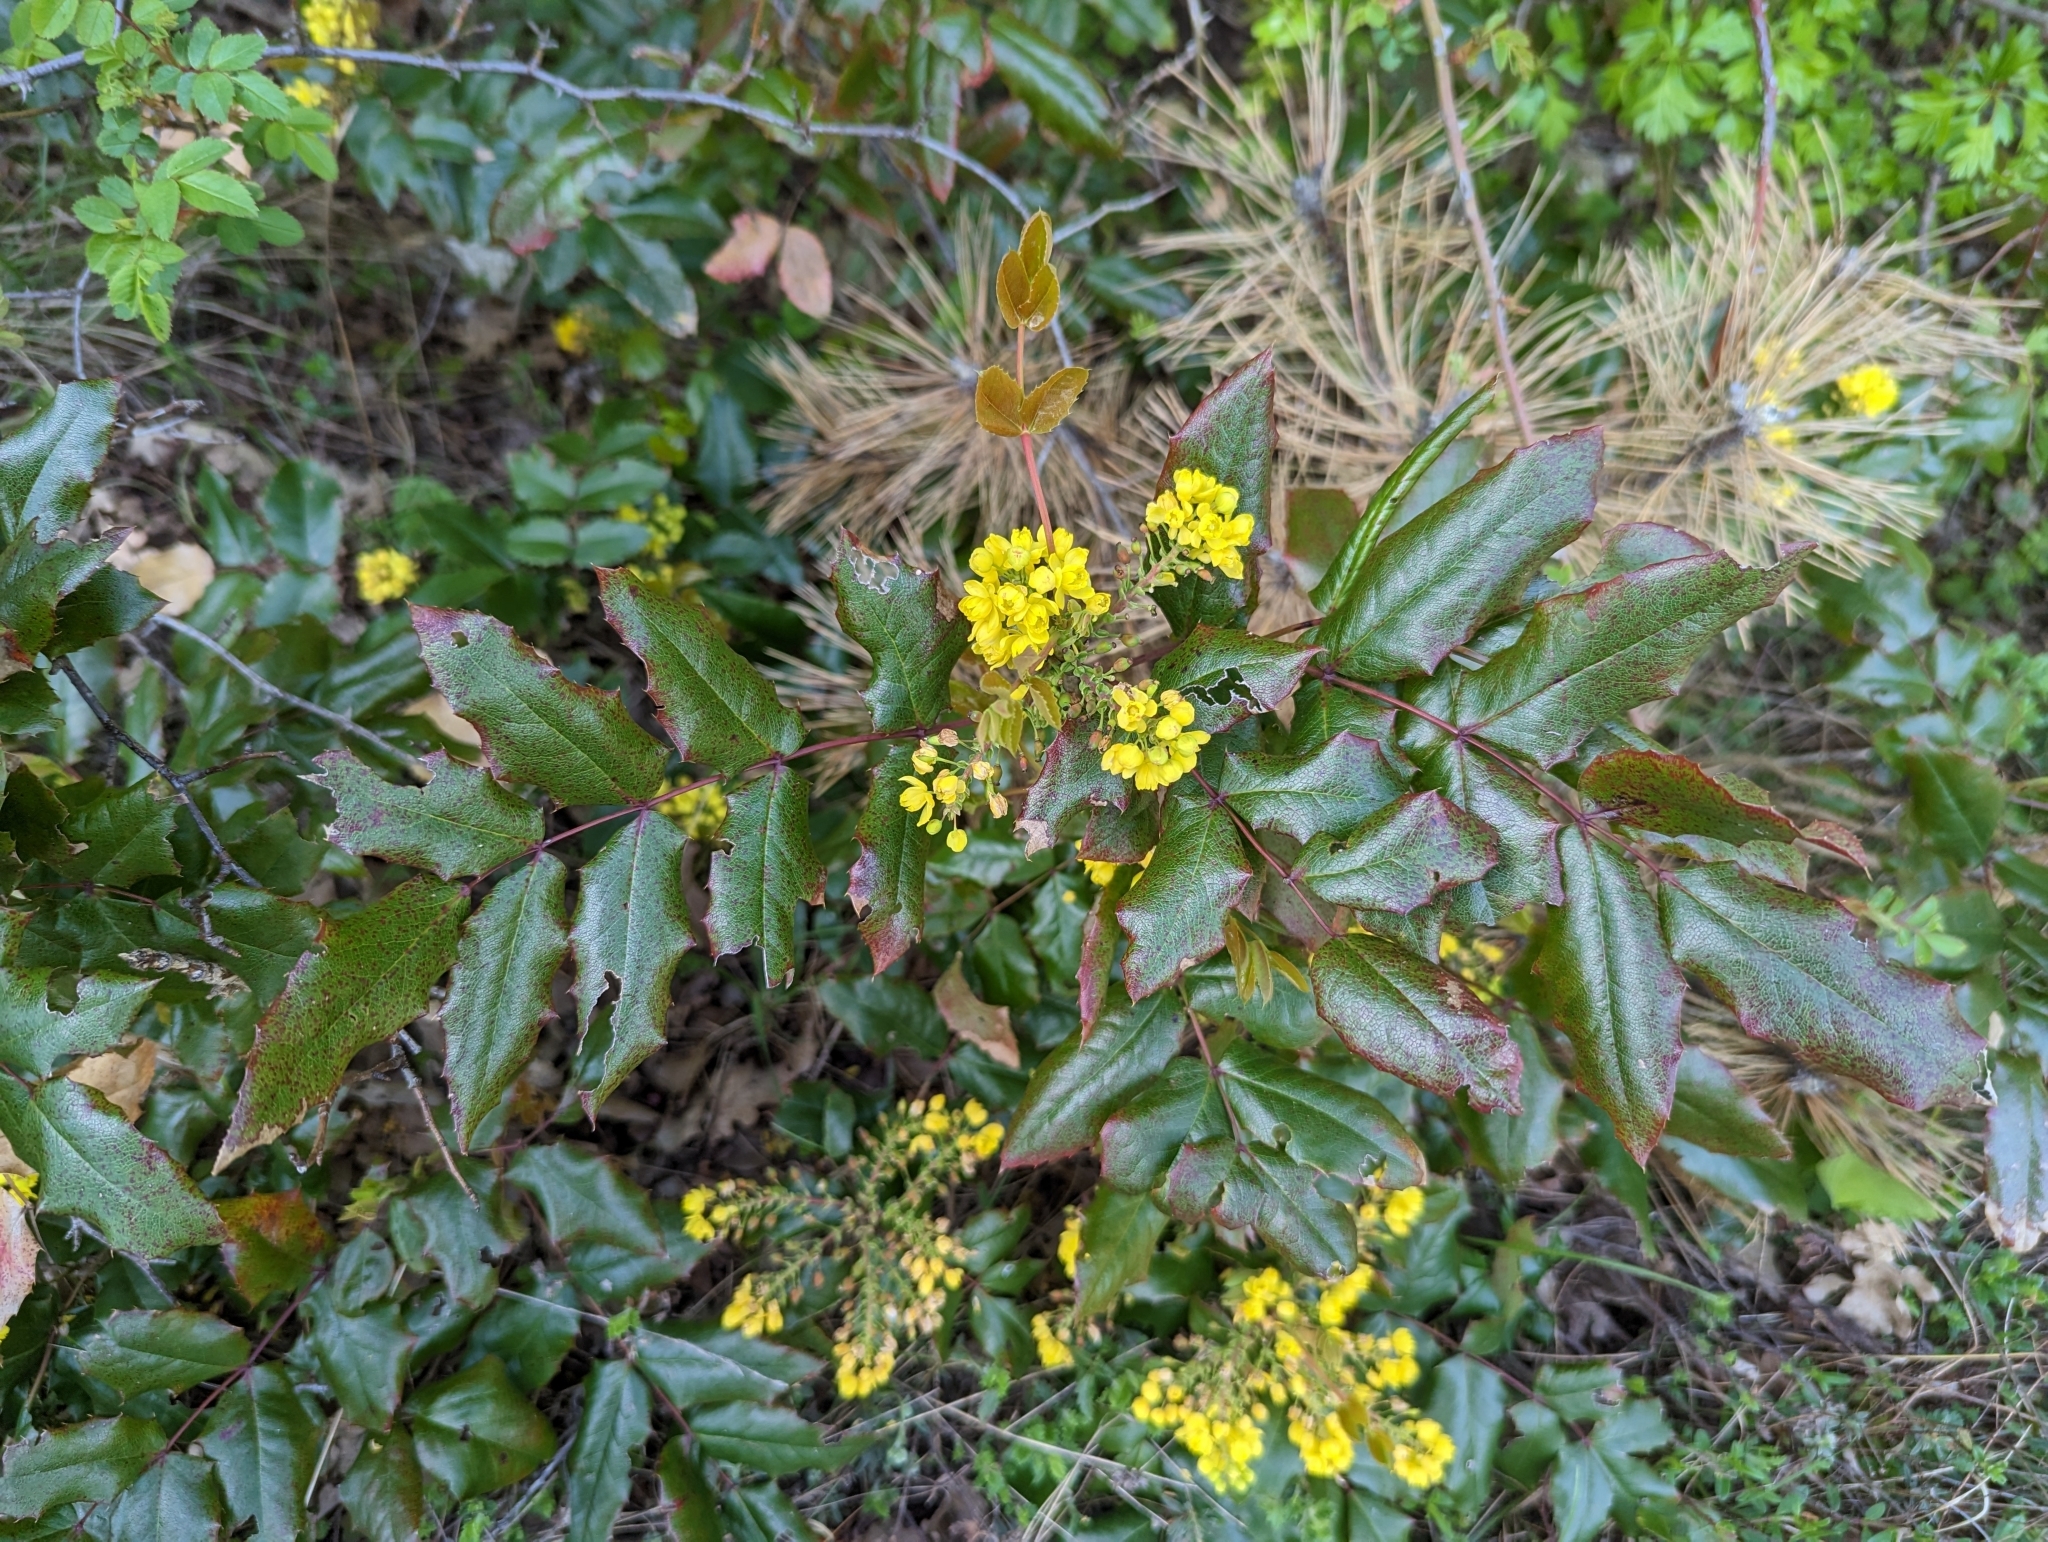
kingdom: Plantae
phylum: Tracheophyta
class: Magnoliopsida
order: Ranunculales
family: Berberidaceae
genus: Mahonia
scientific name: Mahonia aquifolium
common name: Oregon-grape
